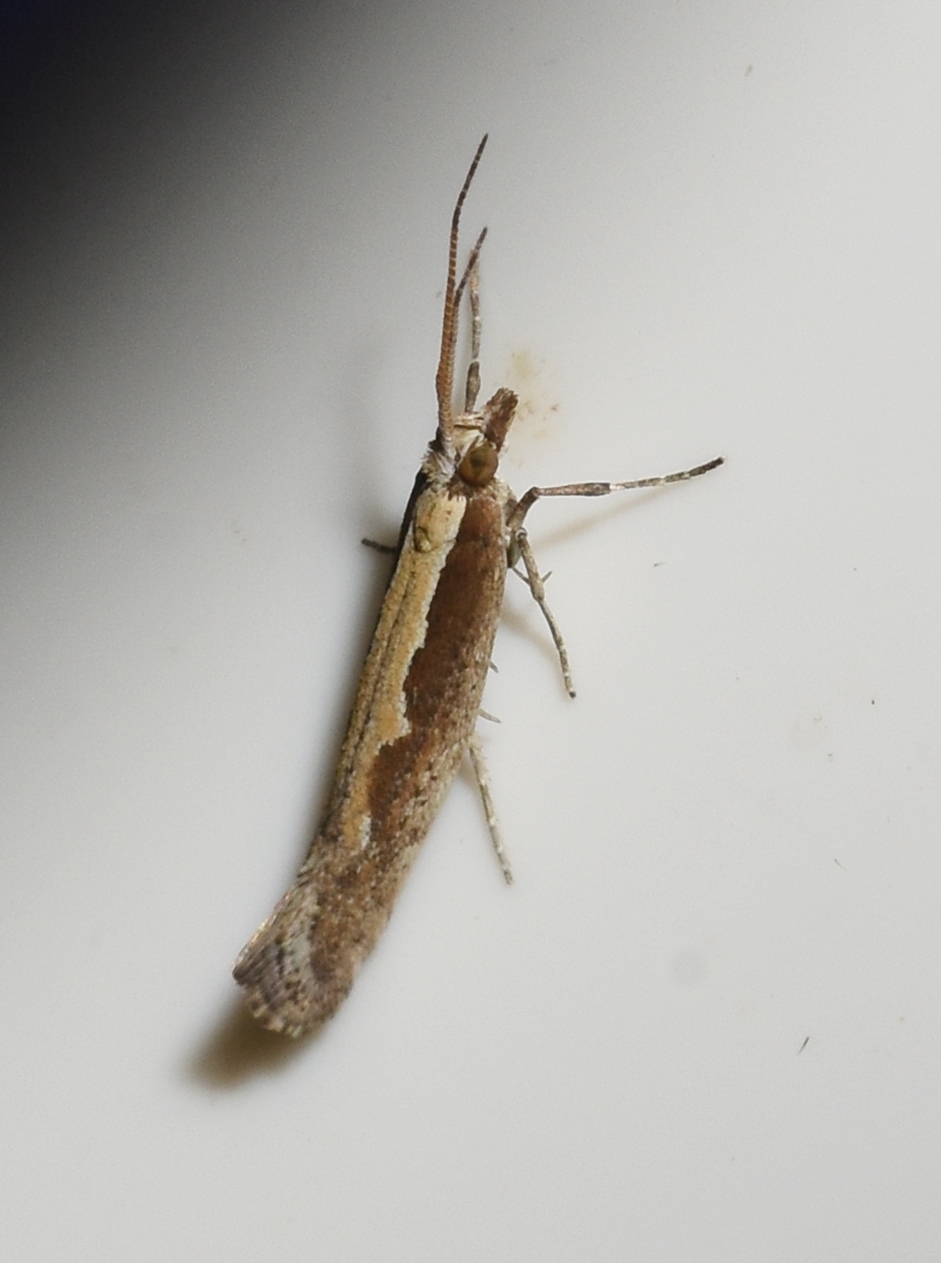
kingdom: Animalia
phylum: Arthropoda
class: Insecta
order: Lepidoptera
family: Plutellidae
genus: Plutella
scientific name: Plutella xylostella
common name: Diamond-back moth
